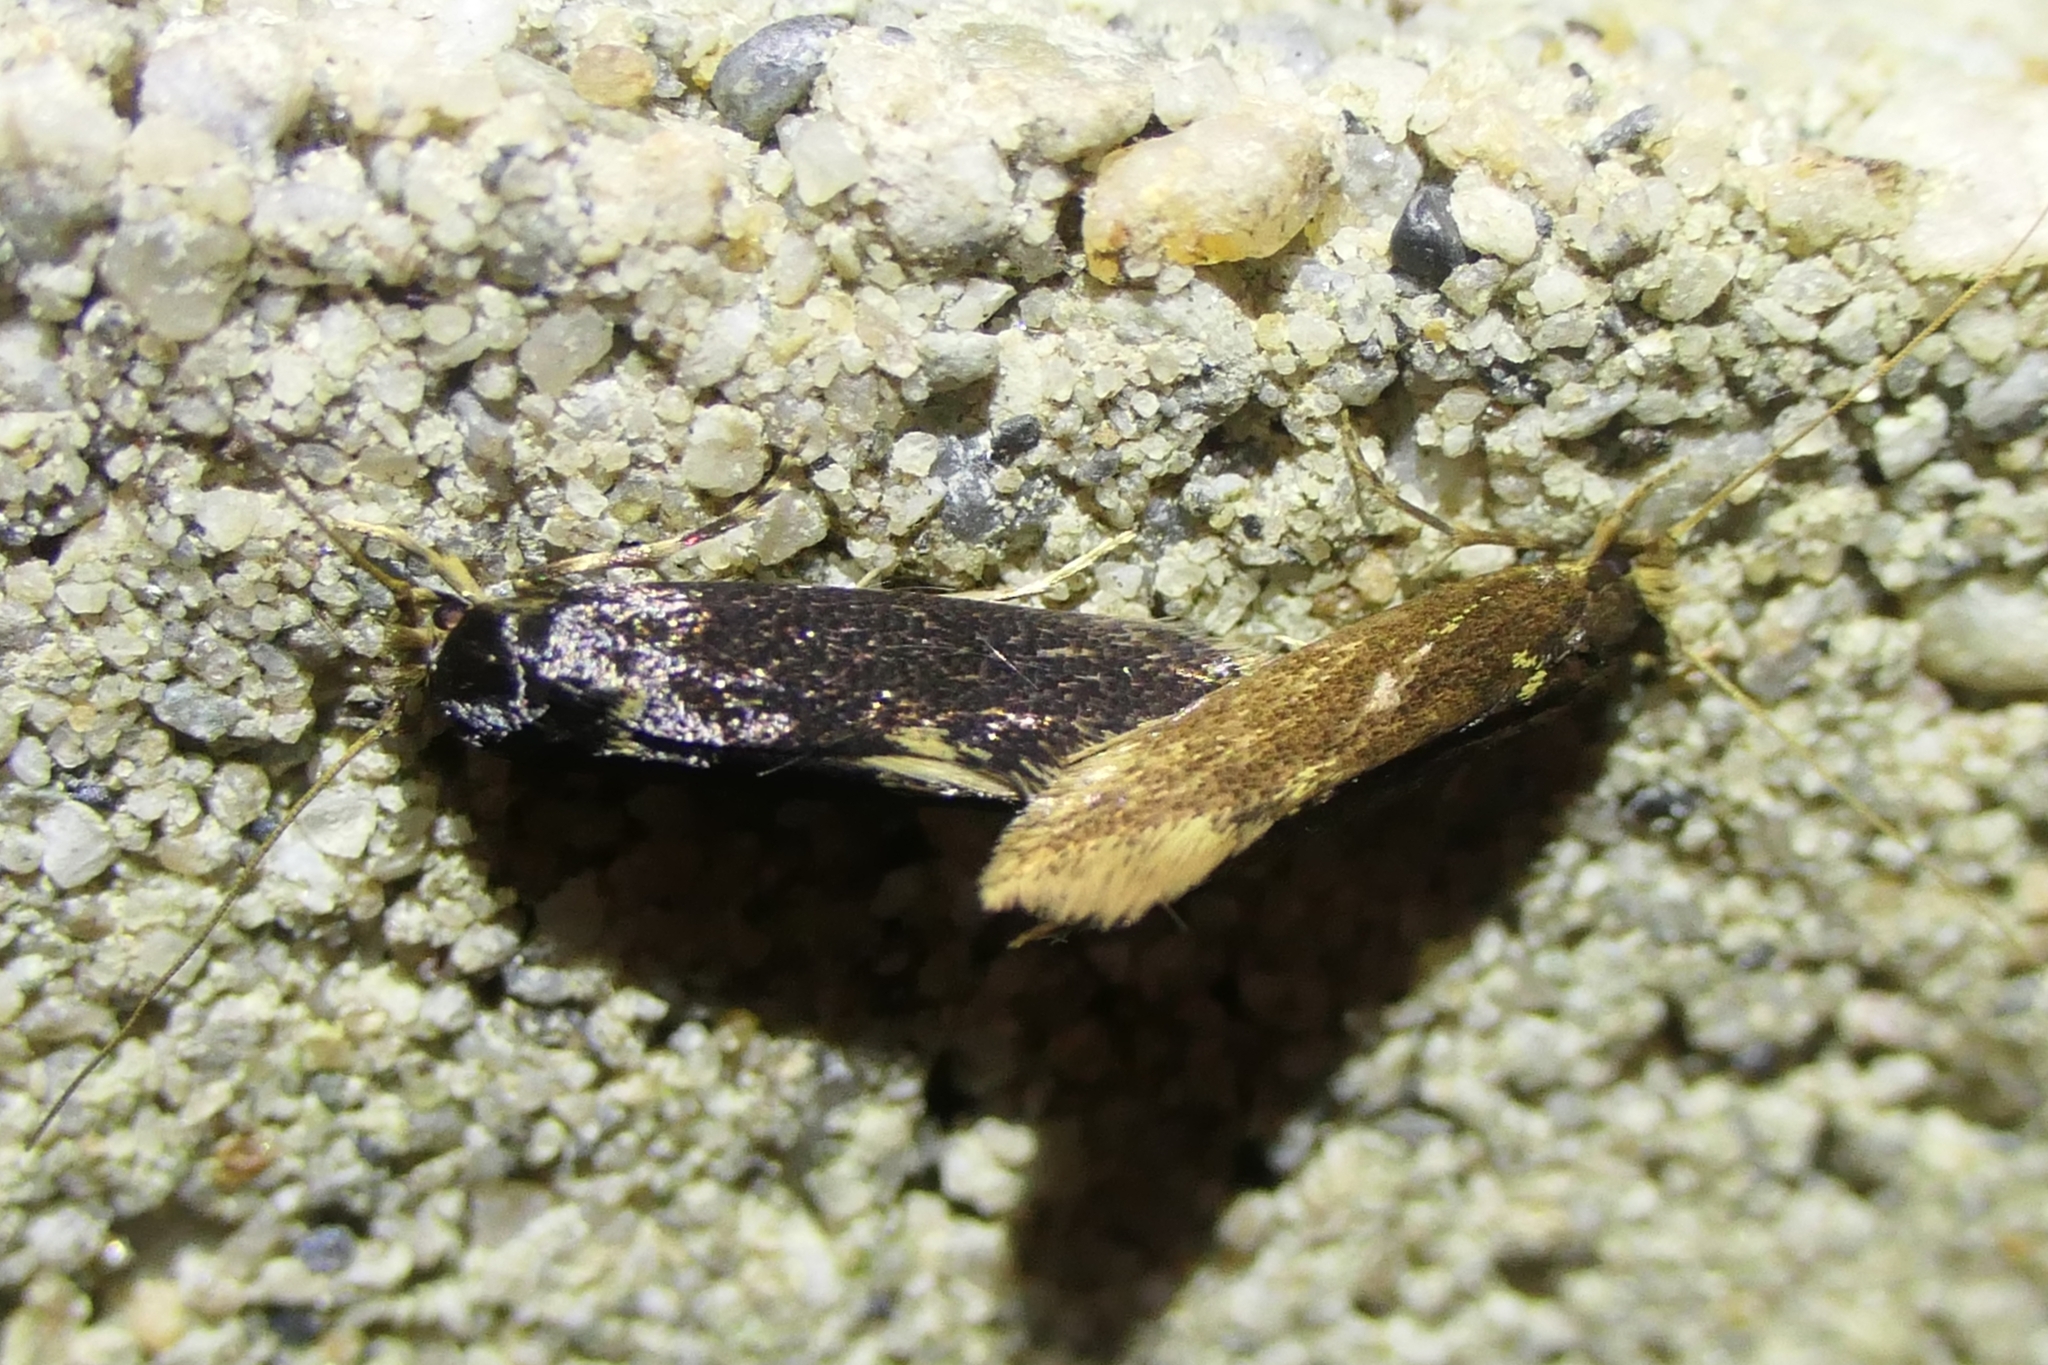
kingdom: Animalia
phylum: Arthropoda
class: Insecta
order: Lepidoptera
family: Tineidae
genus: Opogona
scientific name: Opogona omoscopa
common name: Moth
